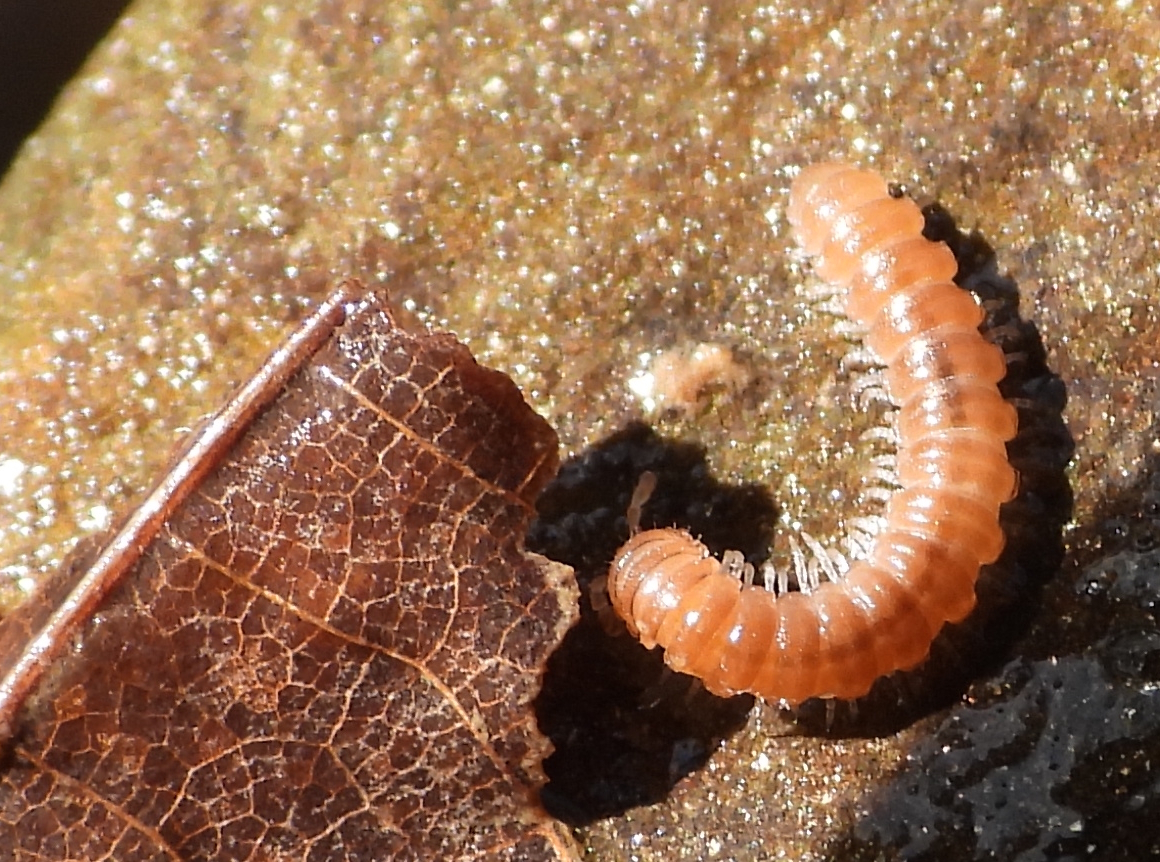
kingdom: Animalia
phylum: Arthropoda
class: Diplopoda
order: Polydesmida
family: Paradoxosomatidae
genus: Oxidus
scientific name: Oxidus gracilis
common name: Greenhouse millipede
